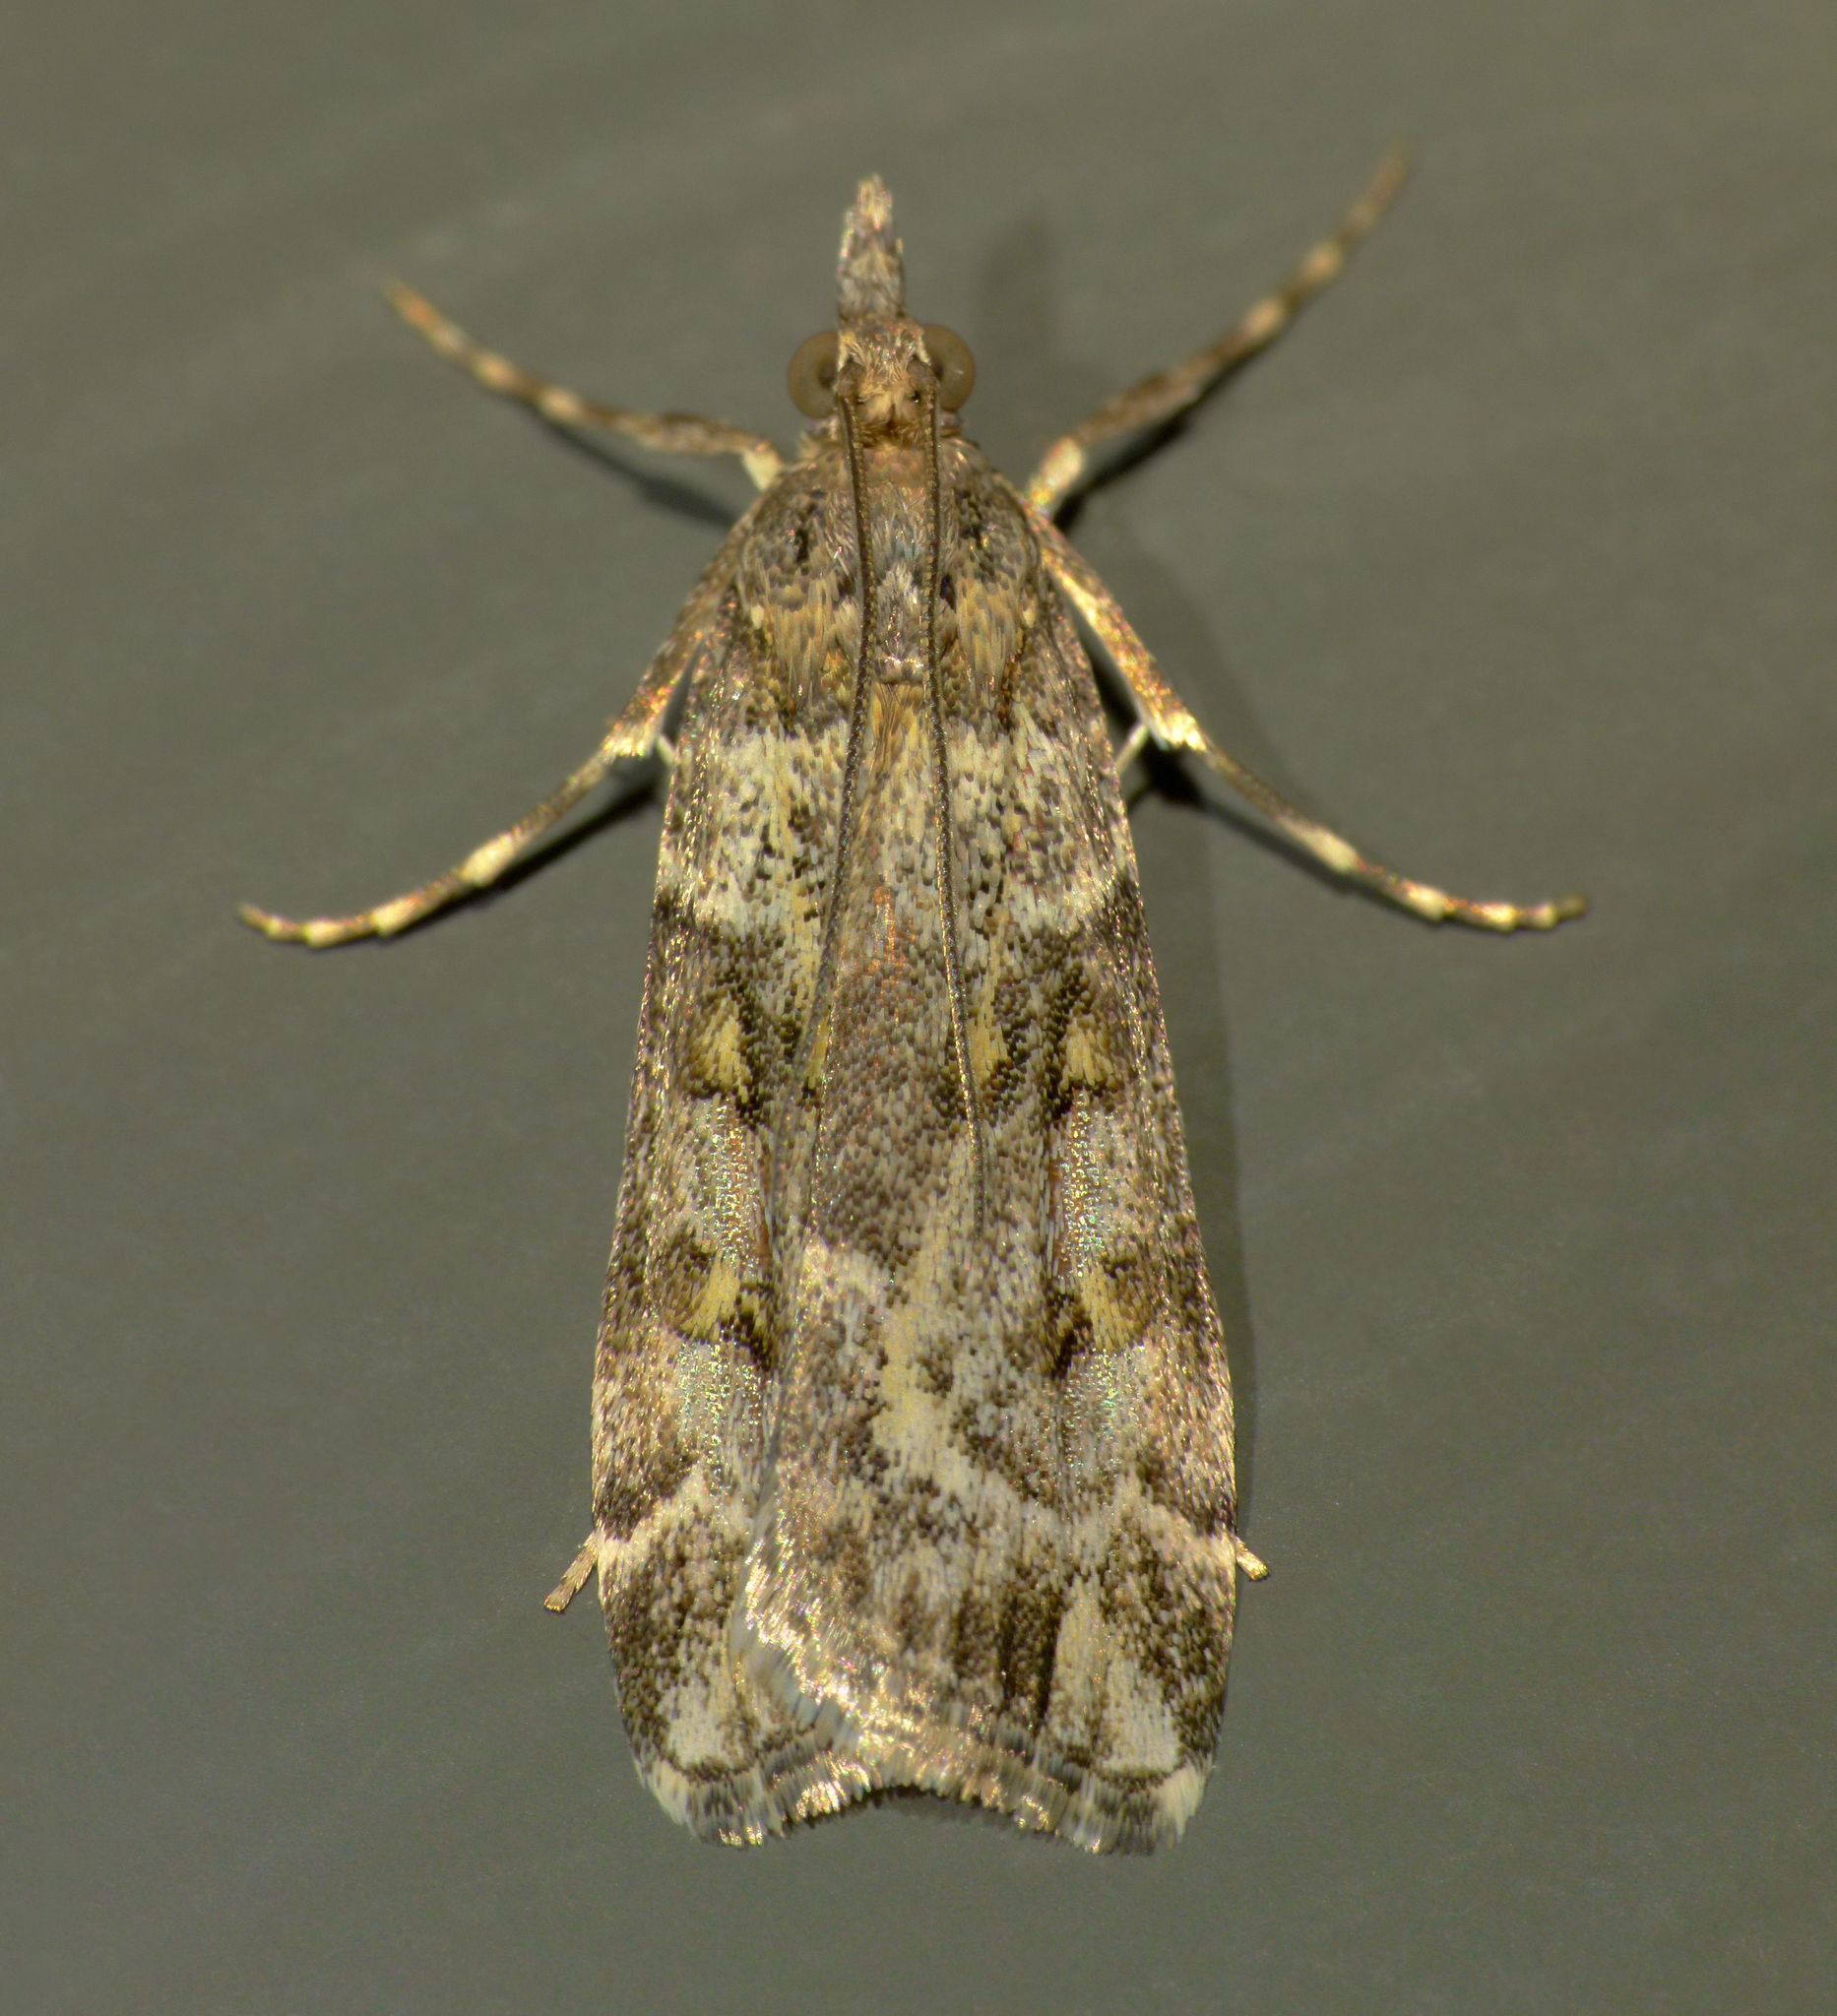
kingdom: Animalia
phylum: Arthropoda
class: Insecta
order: Lepidoptera
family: Crambidae
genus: Eudonia
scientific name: Eudonia diphtheralis
